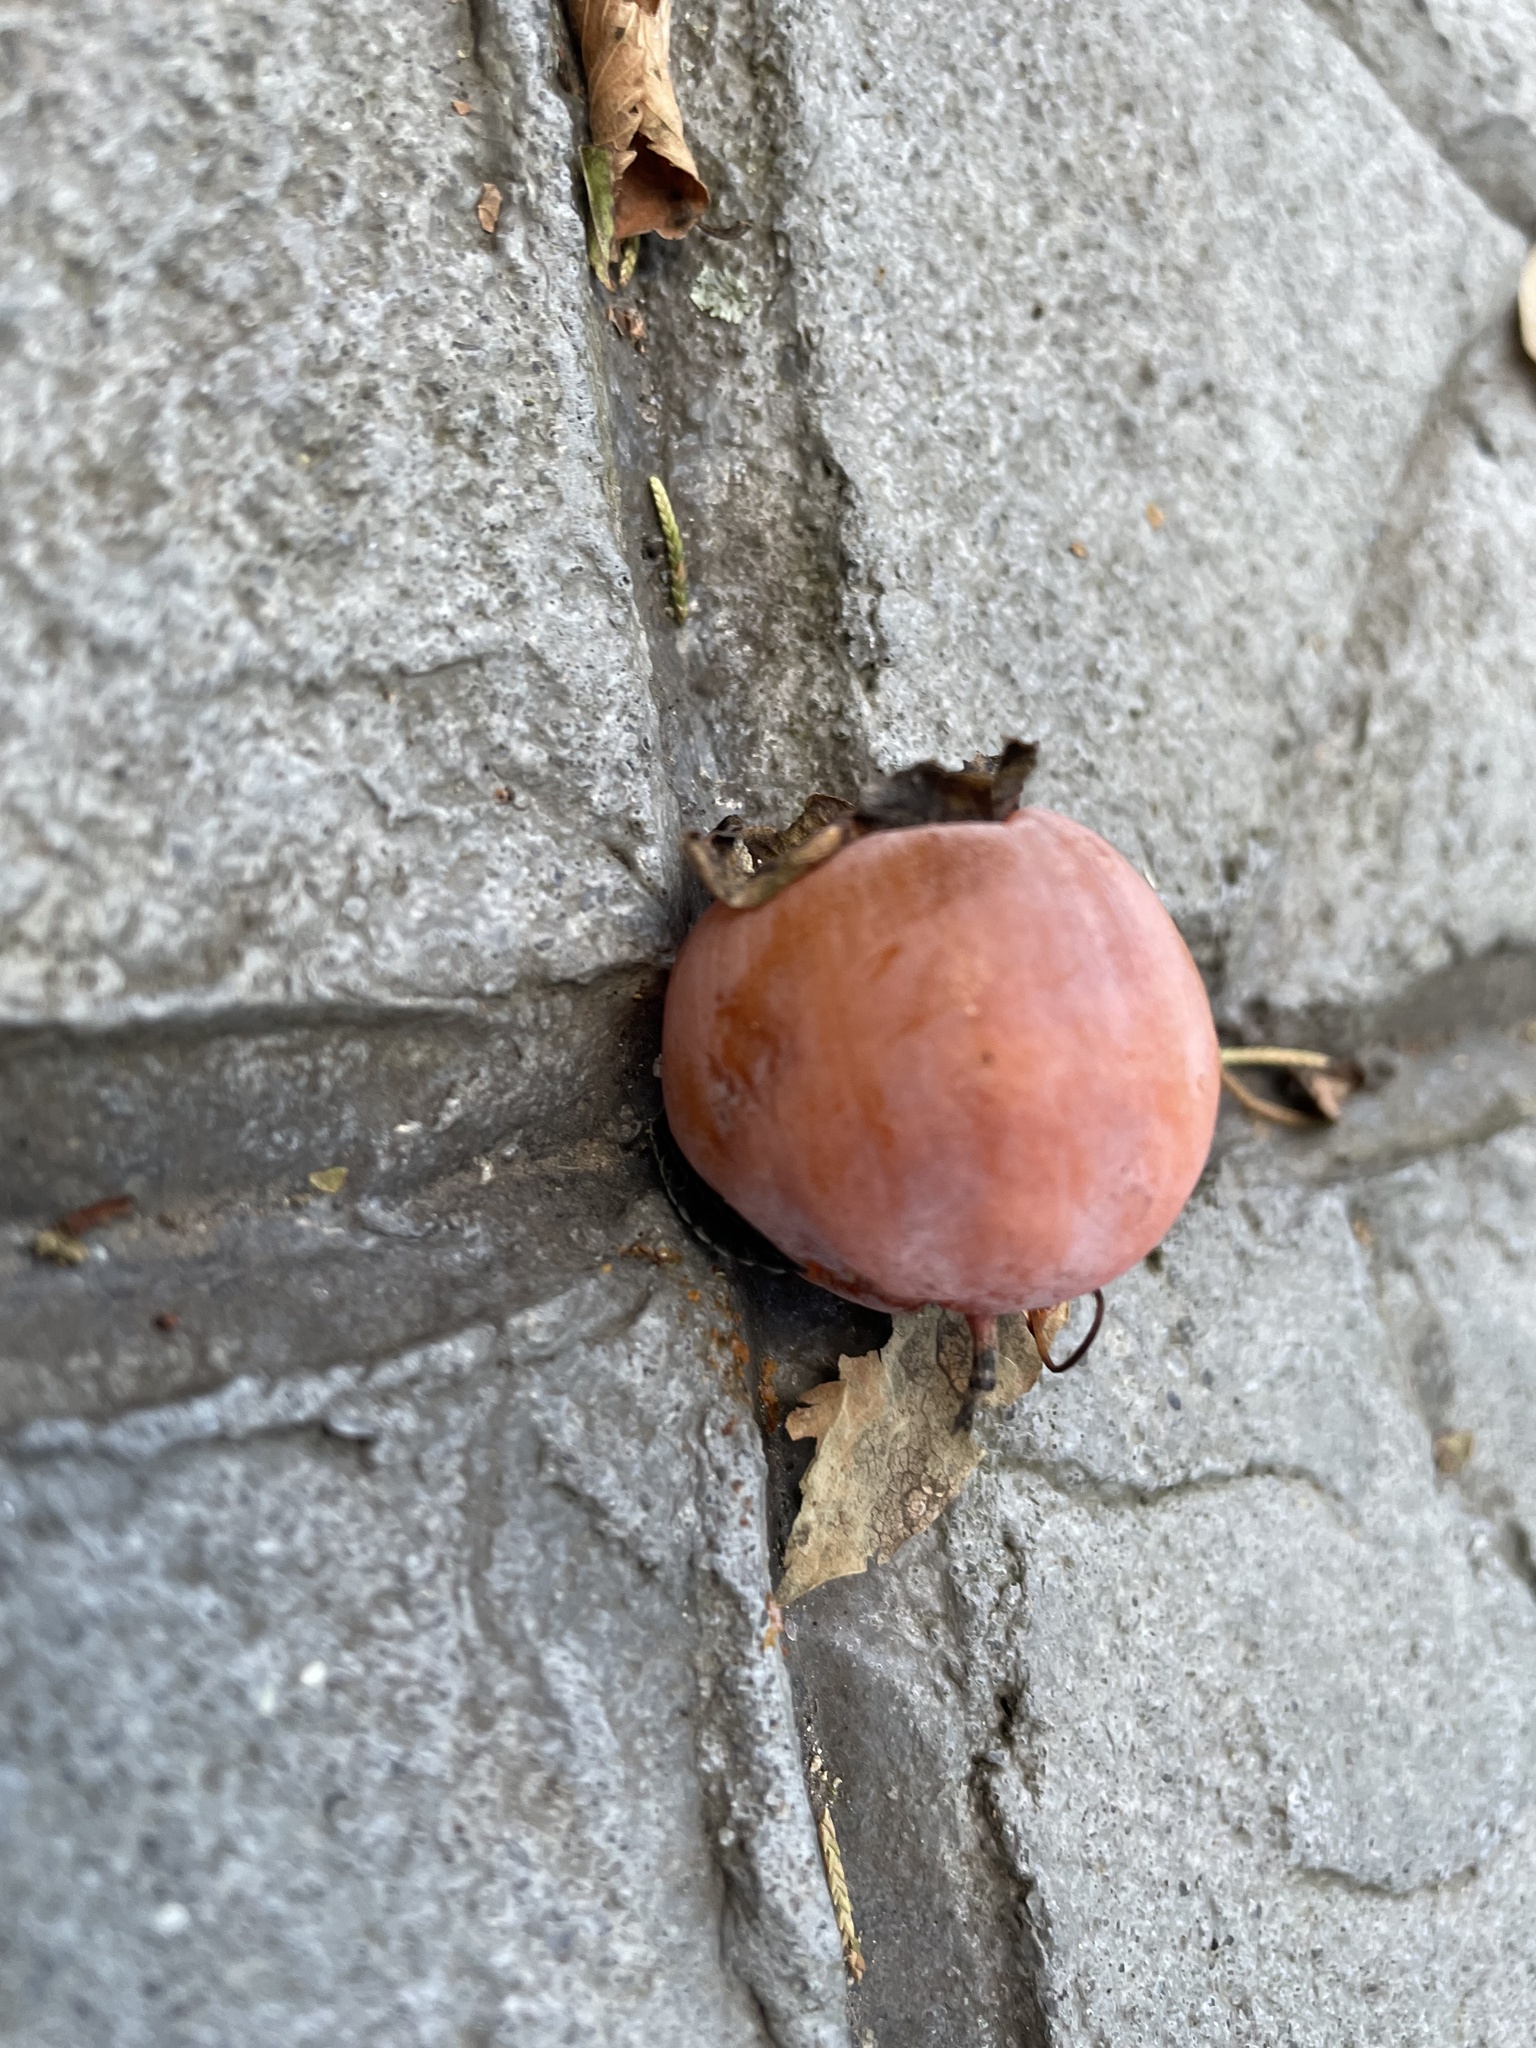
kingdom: Plantae
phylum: Tracheophyta
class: Magnoliopsida
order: Ericales
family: Ebenaceae
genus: Diospyros
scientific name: Diospyros virginiana
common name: Persimmon
